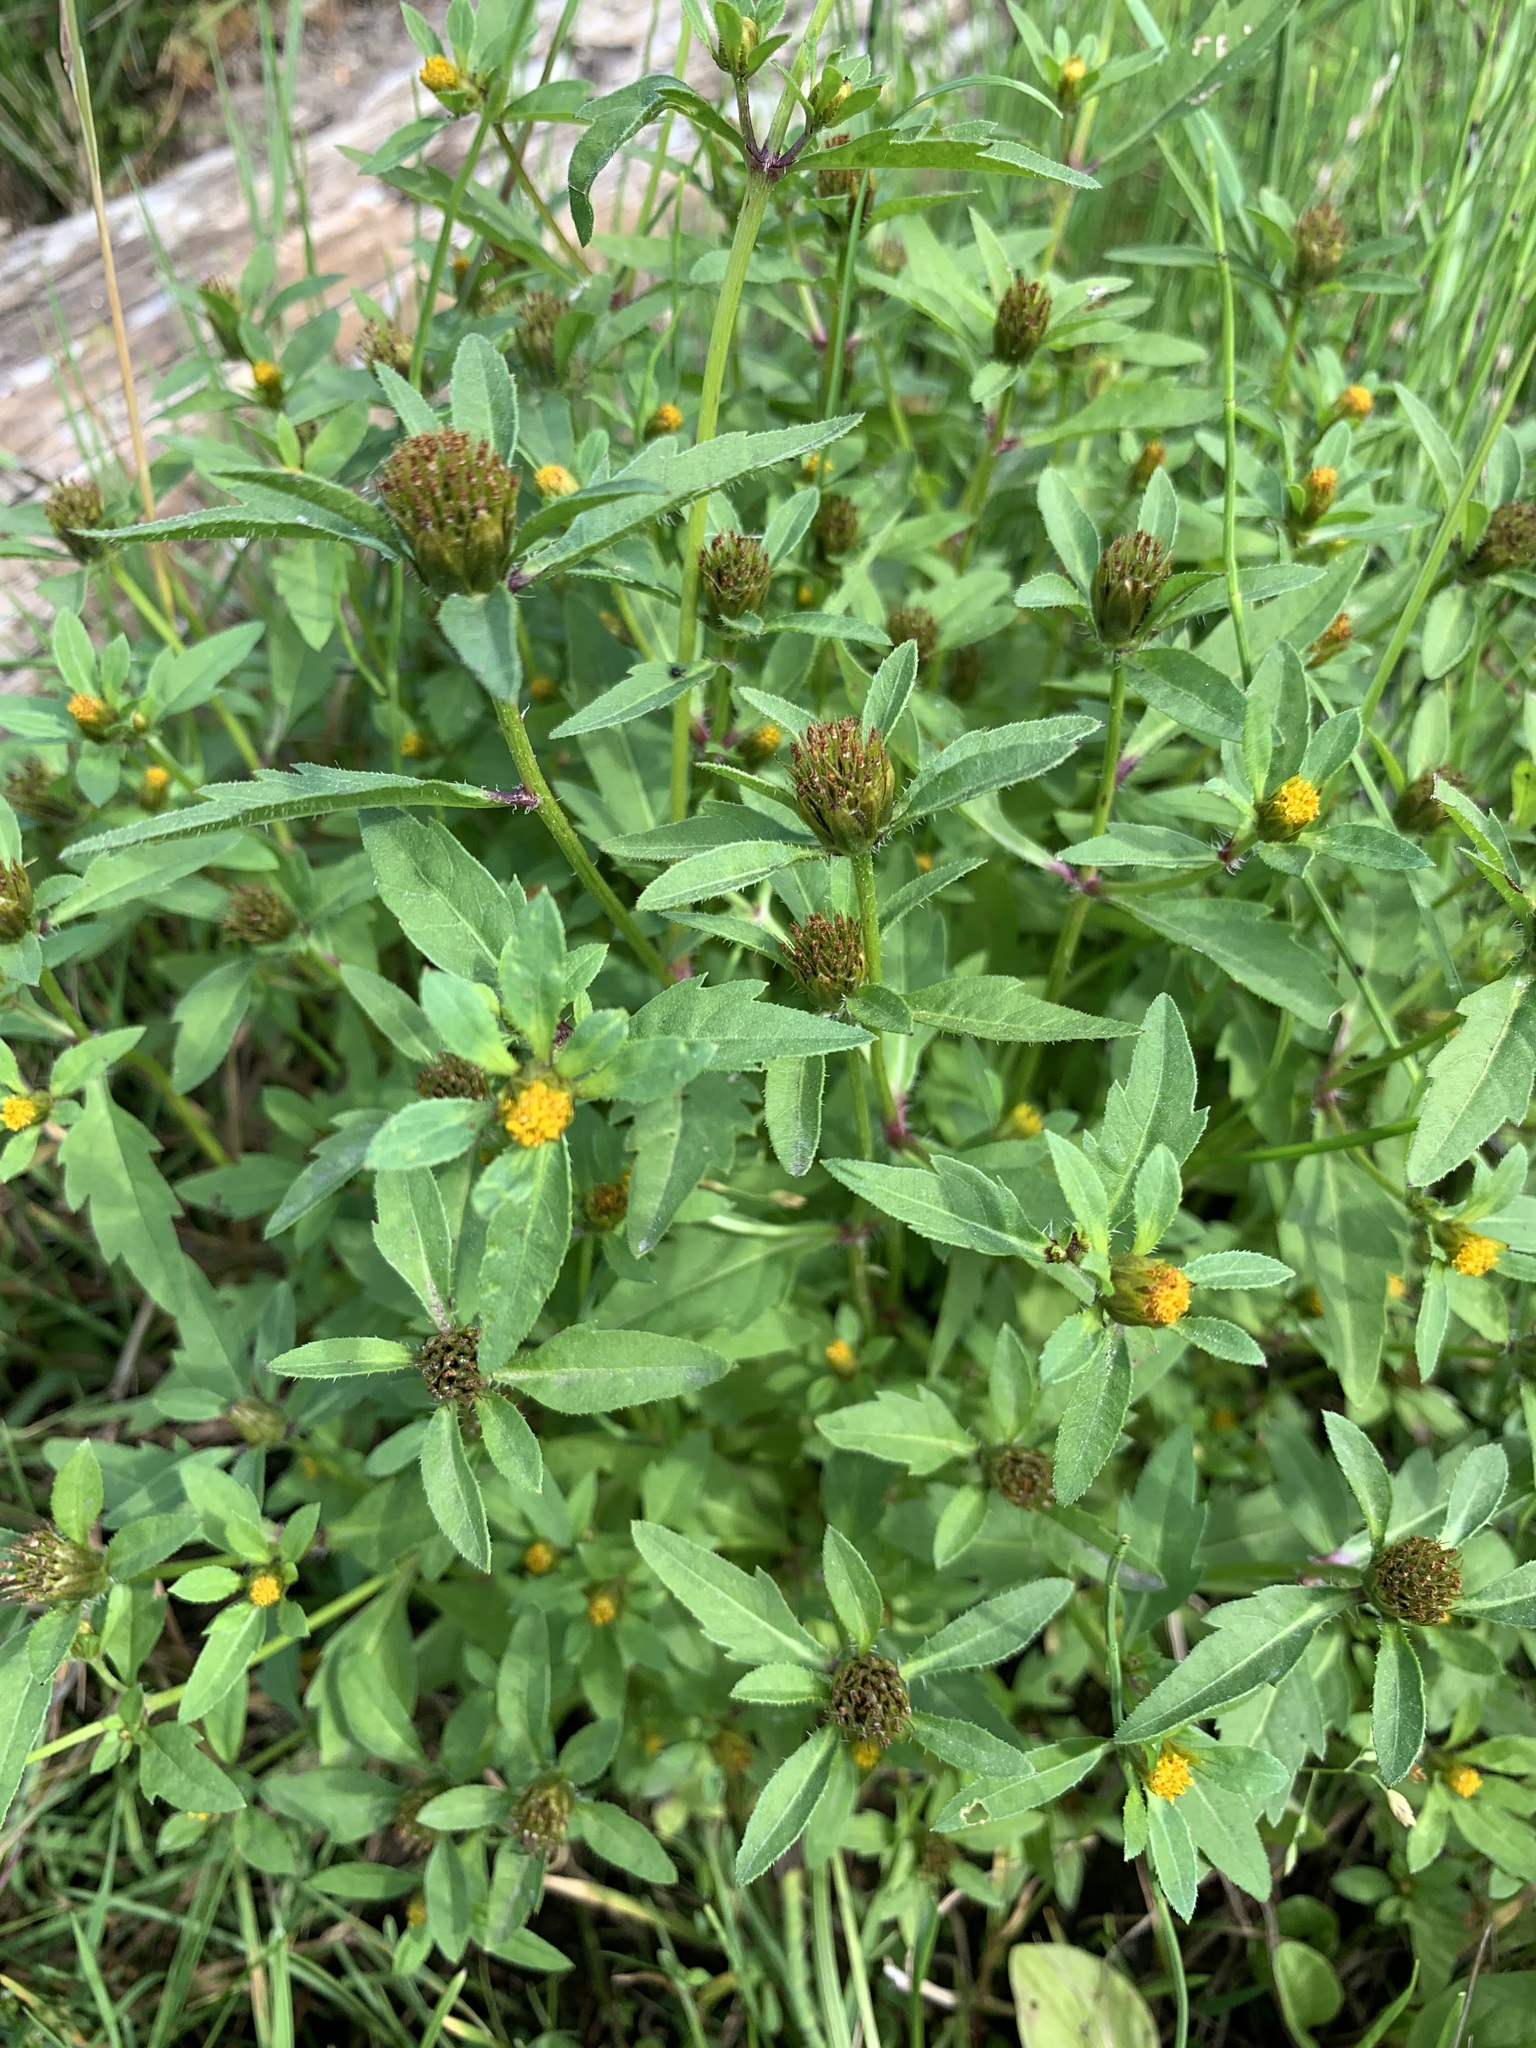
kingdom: Plantae
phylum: Tracheophyta
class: Magnoliopsida
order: Asterales
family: Asteraceae
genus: Bidens
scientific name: Bidens tripartita
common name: Trifid bur-marigold
